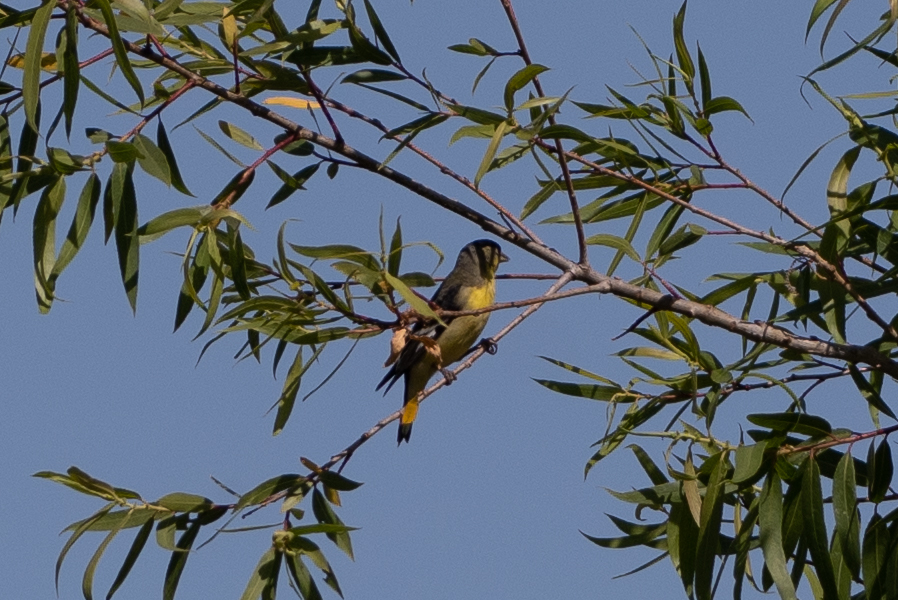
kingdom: Animalia
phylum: Chordata
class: Aves
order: Passeriformes
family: Fringillidae
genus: Spinus
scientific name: Spinus psaltria
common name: Lesser goldfinch
